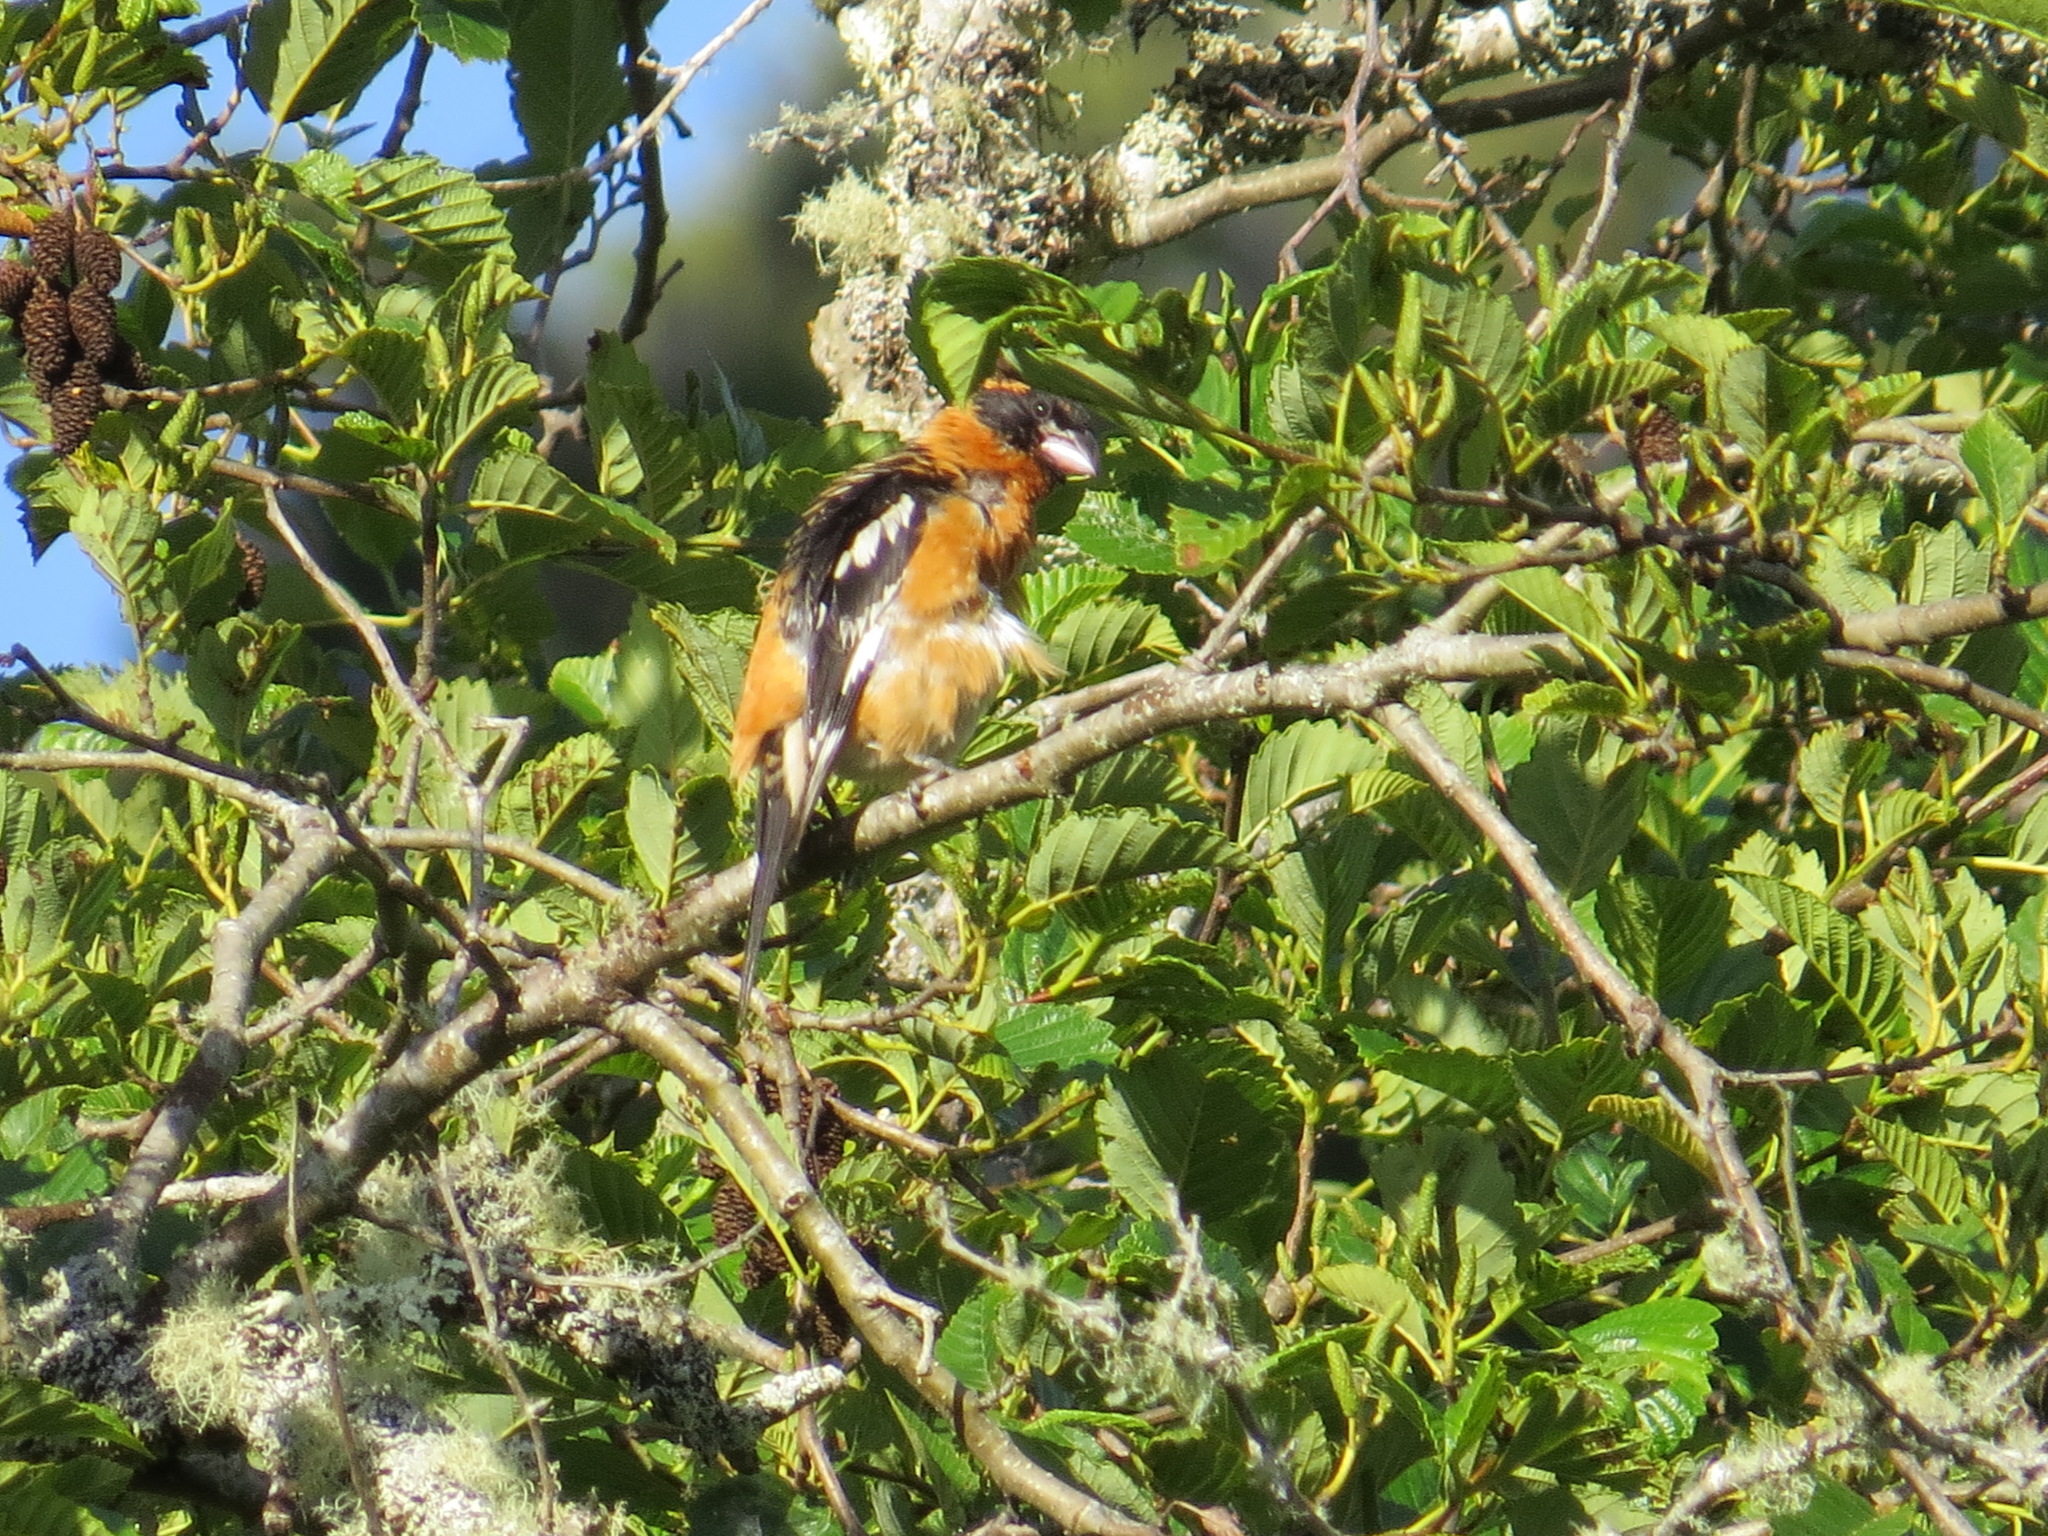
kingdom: Animalia
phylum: Chordata
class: Aves
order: Passeriformes
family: Cardinalidae
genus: Pheucticus
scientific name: Pheucticus melanocephalus
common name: Black-headed grosbeak
